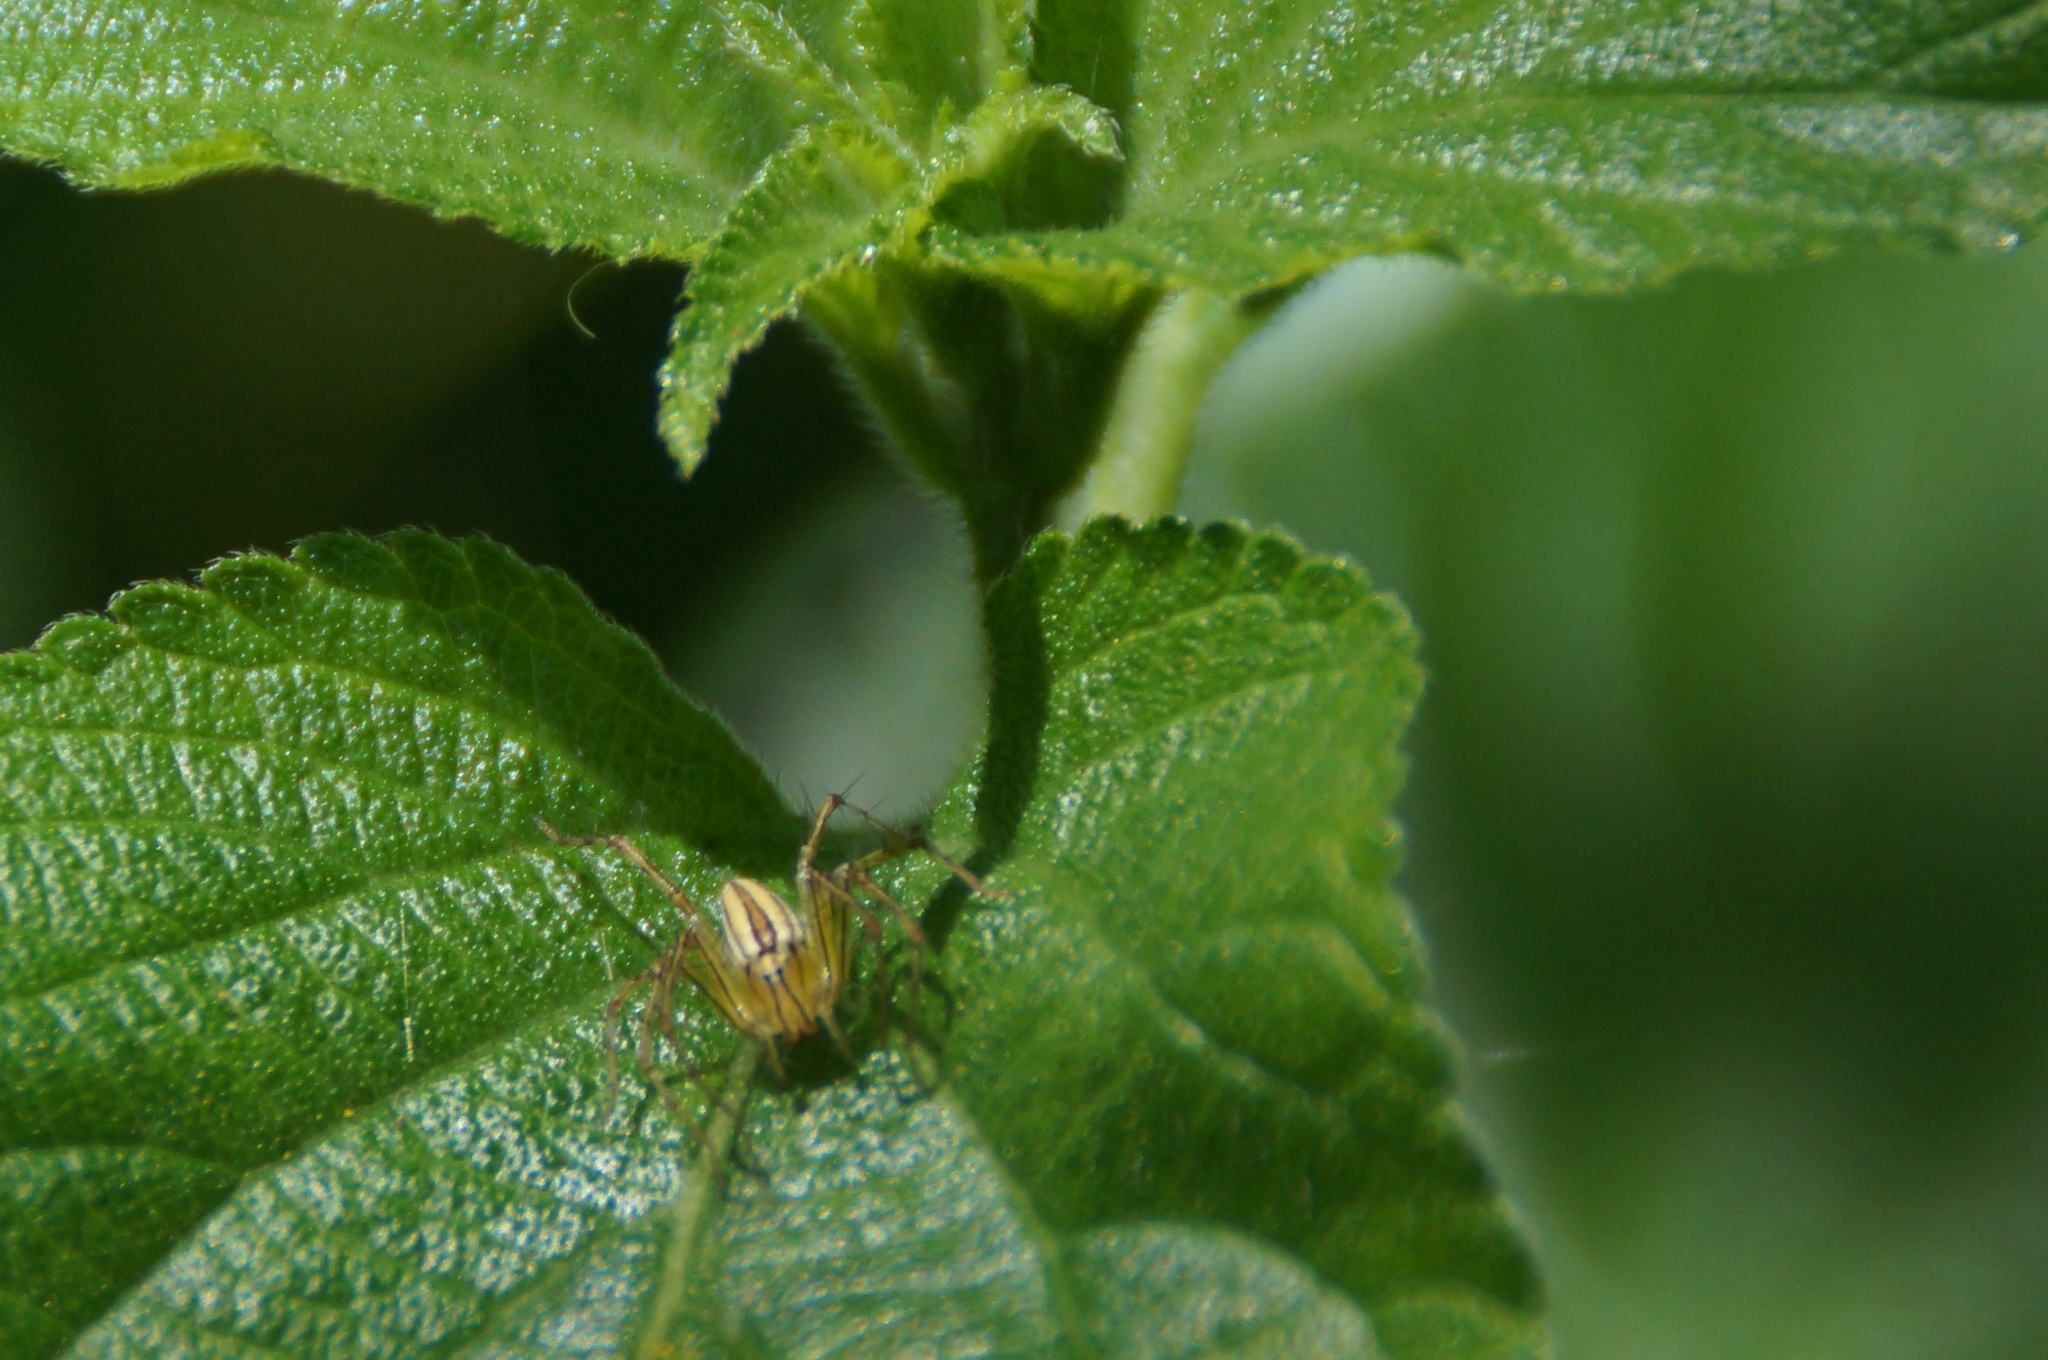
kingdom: Animalia
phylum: Arthropoda
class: Arachnida
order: Araneae
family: Oxyopidae
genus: Oxyopes
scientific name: Oxyopes macilentus
